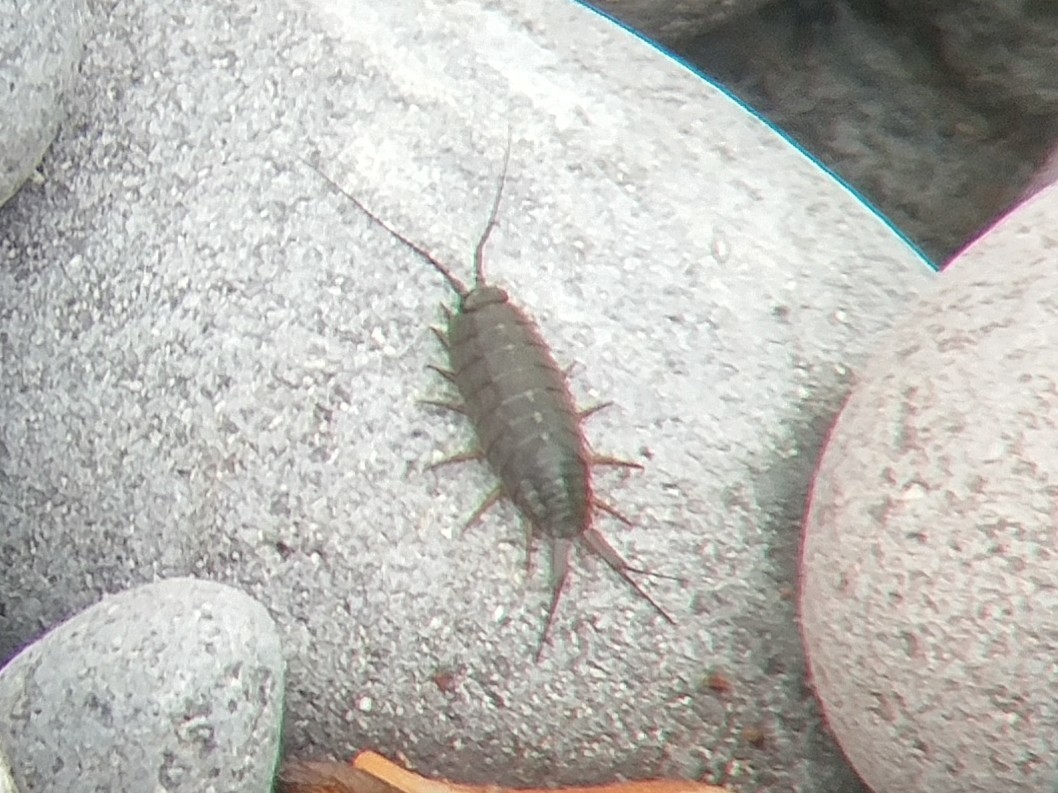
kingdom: Animalia
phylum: Arthropoda
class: Malacostraca
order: Isopoda
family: Ligiidae
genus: Ligia
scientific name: Ligia occidentalis
